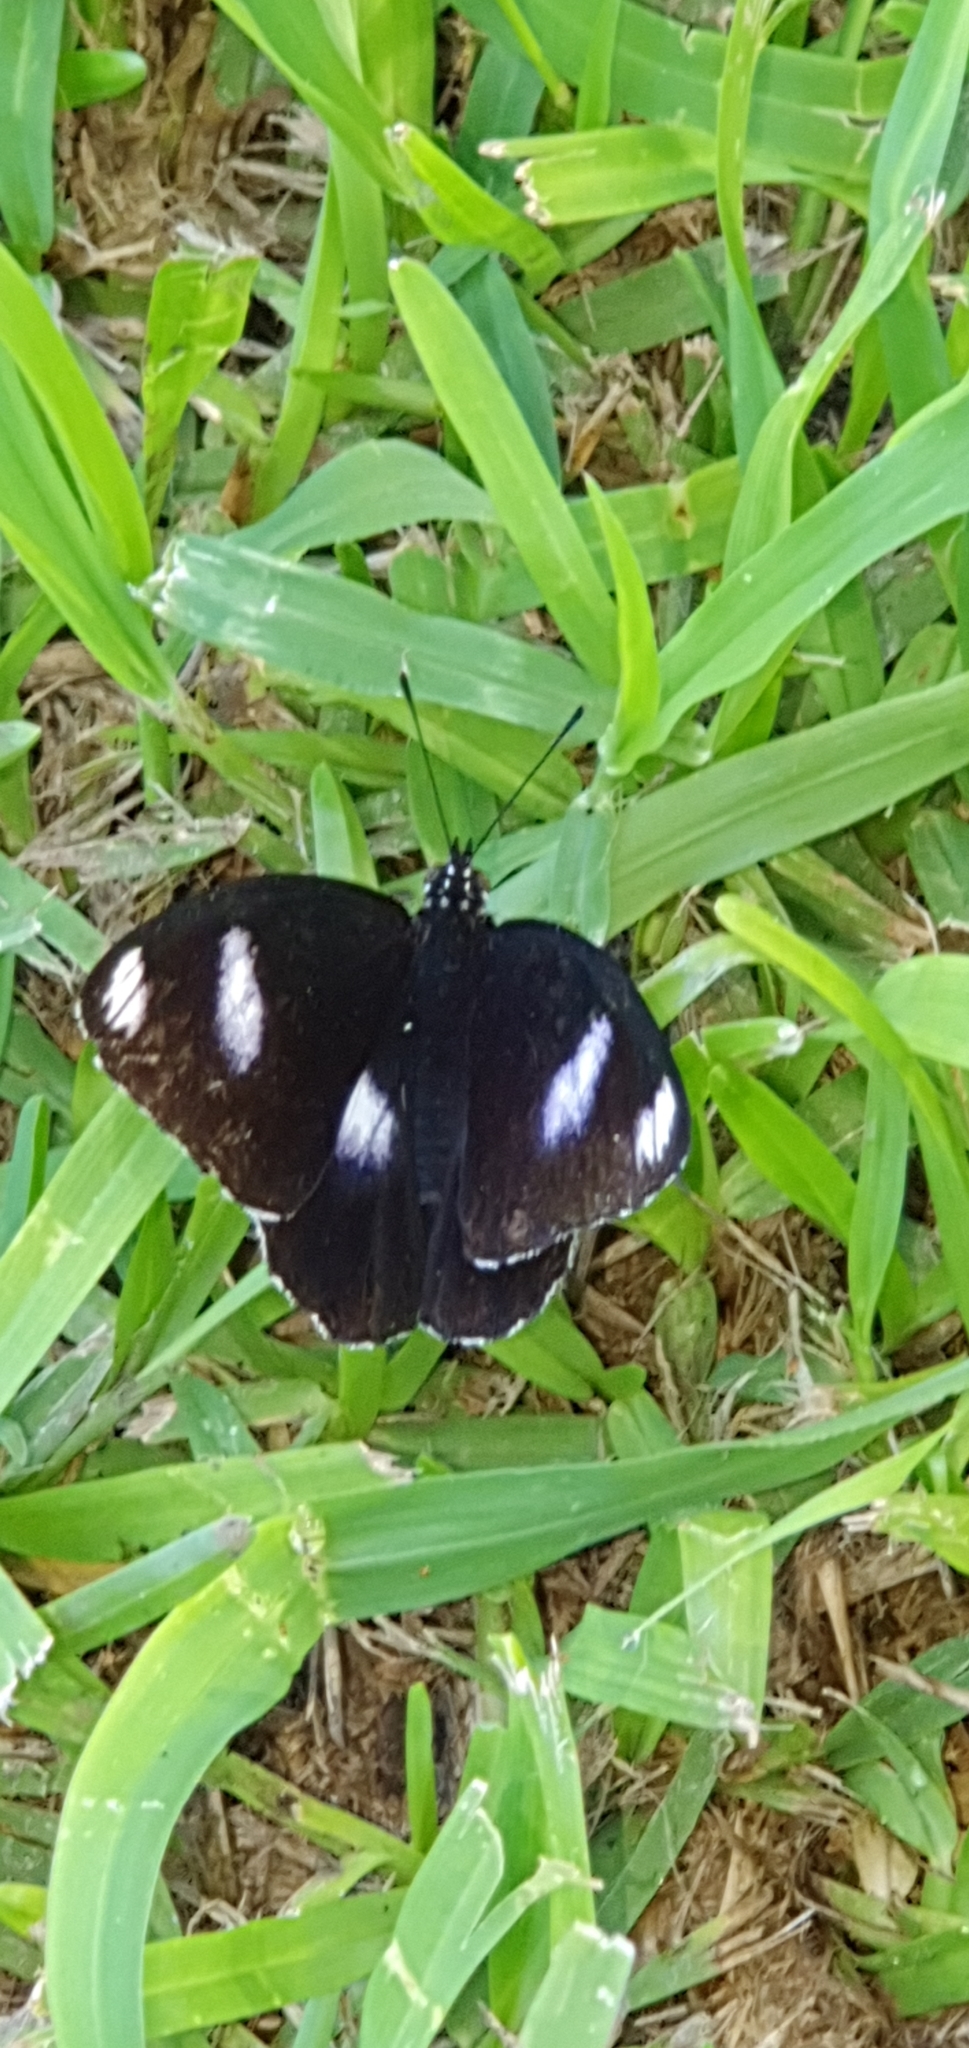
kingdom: Animalia
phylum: Arthropoda
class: Insecta
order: Lepidoptera
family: Nymphalidae
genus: Hypolimnas
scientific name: Hypolimnas bolina
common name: Great eggfly
